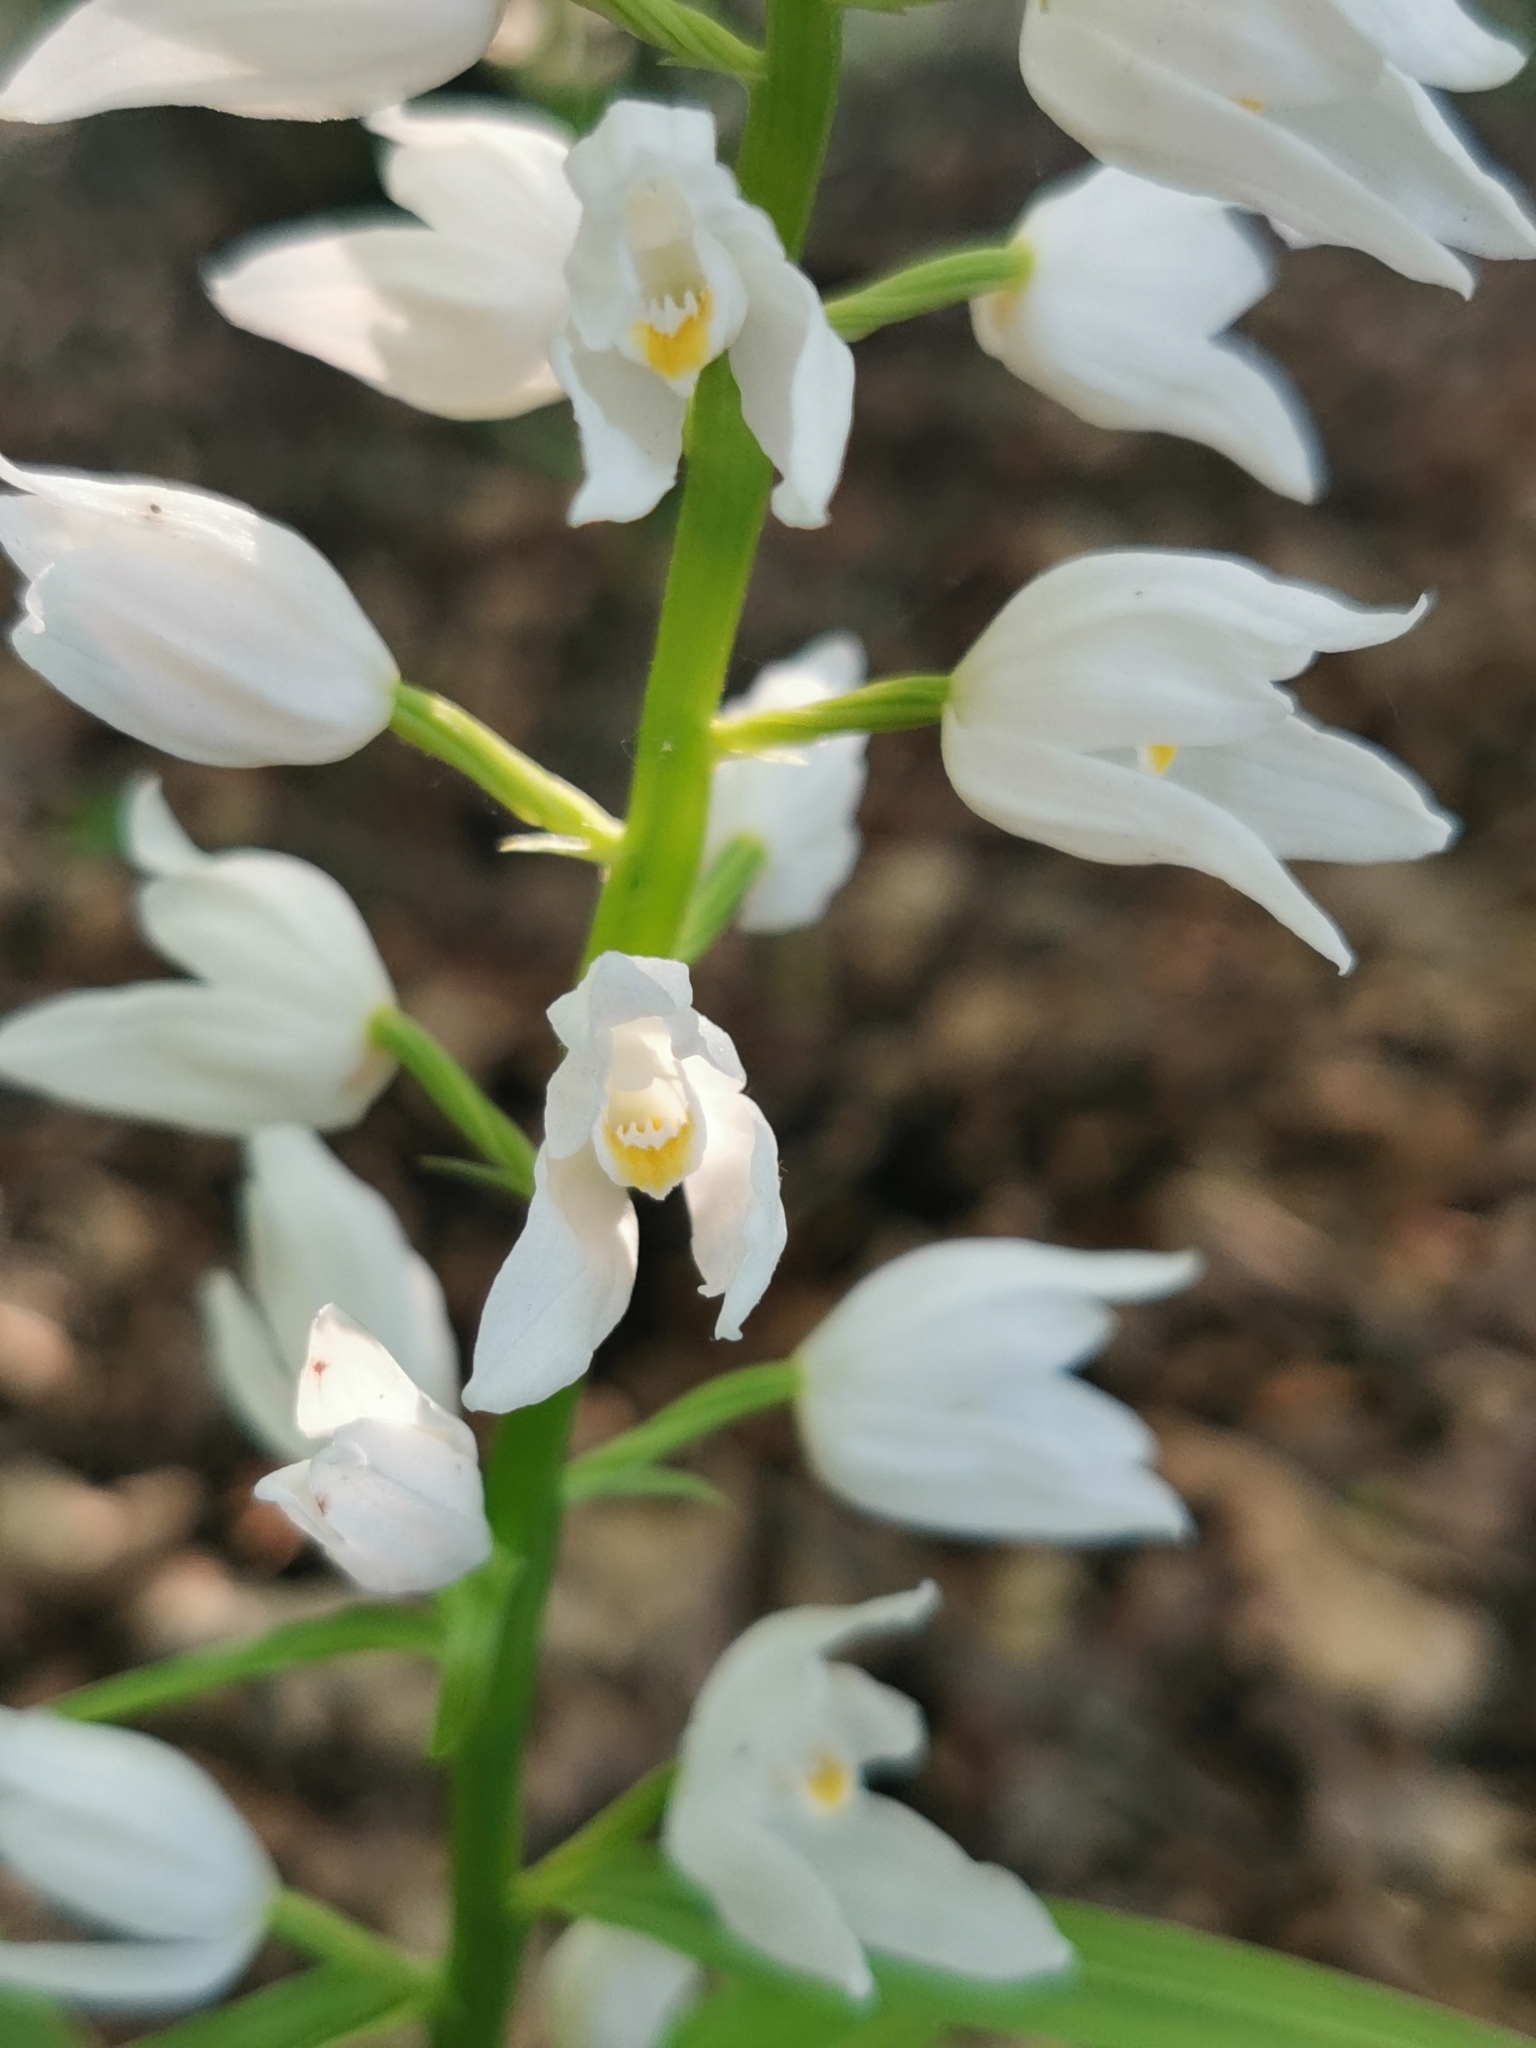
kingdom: Plantae
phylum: Tracheophyta
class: Liliopsida
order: Asparagales
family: Orchidaceae
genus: Cephalanthera
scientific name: Cephalanthera longifolia
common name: Narrow-leaved helleborine
